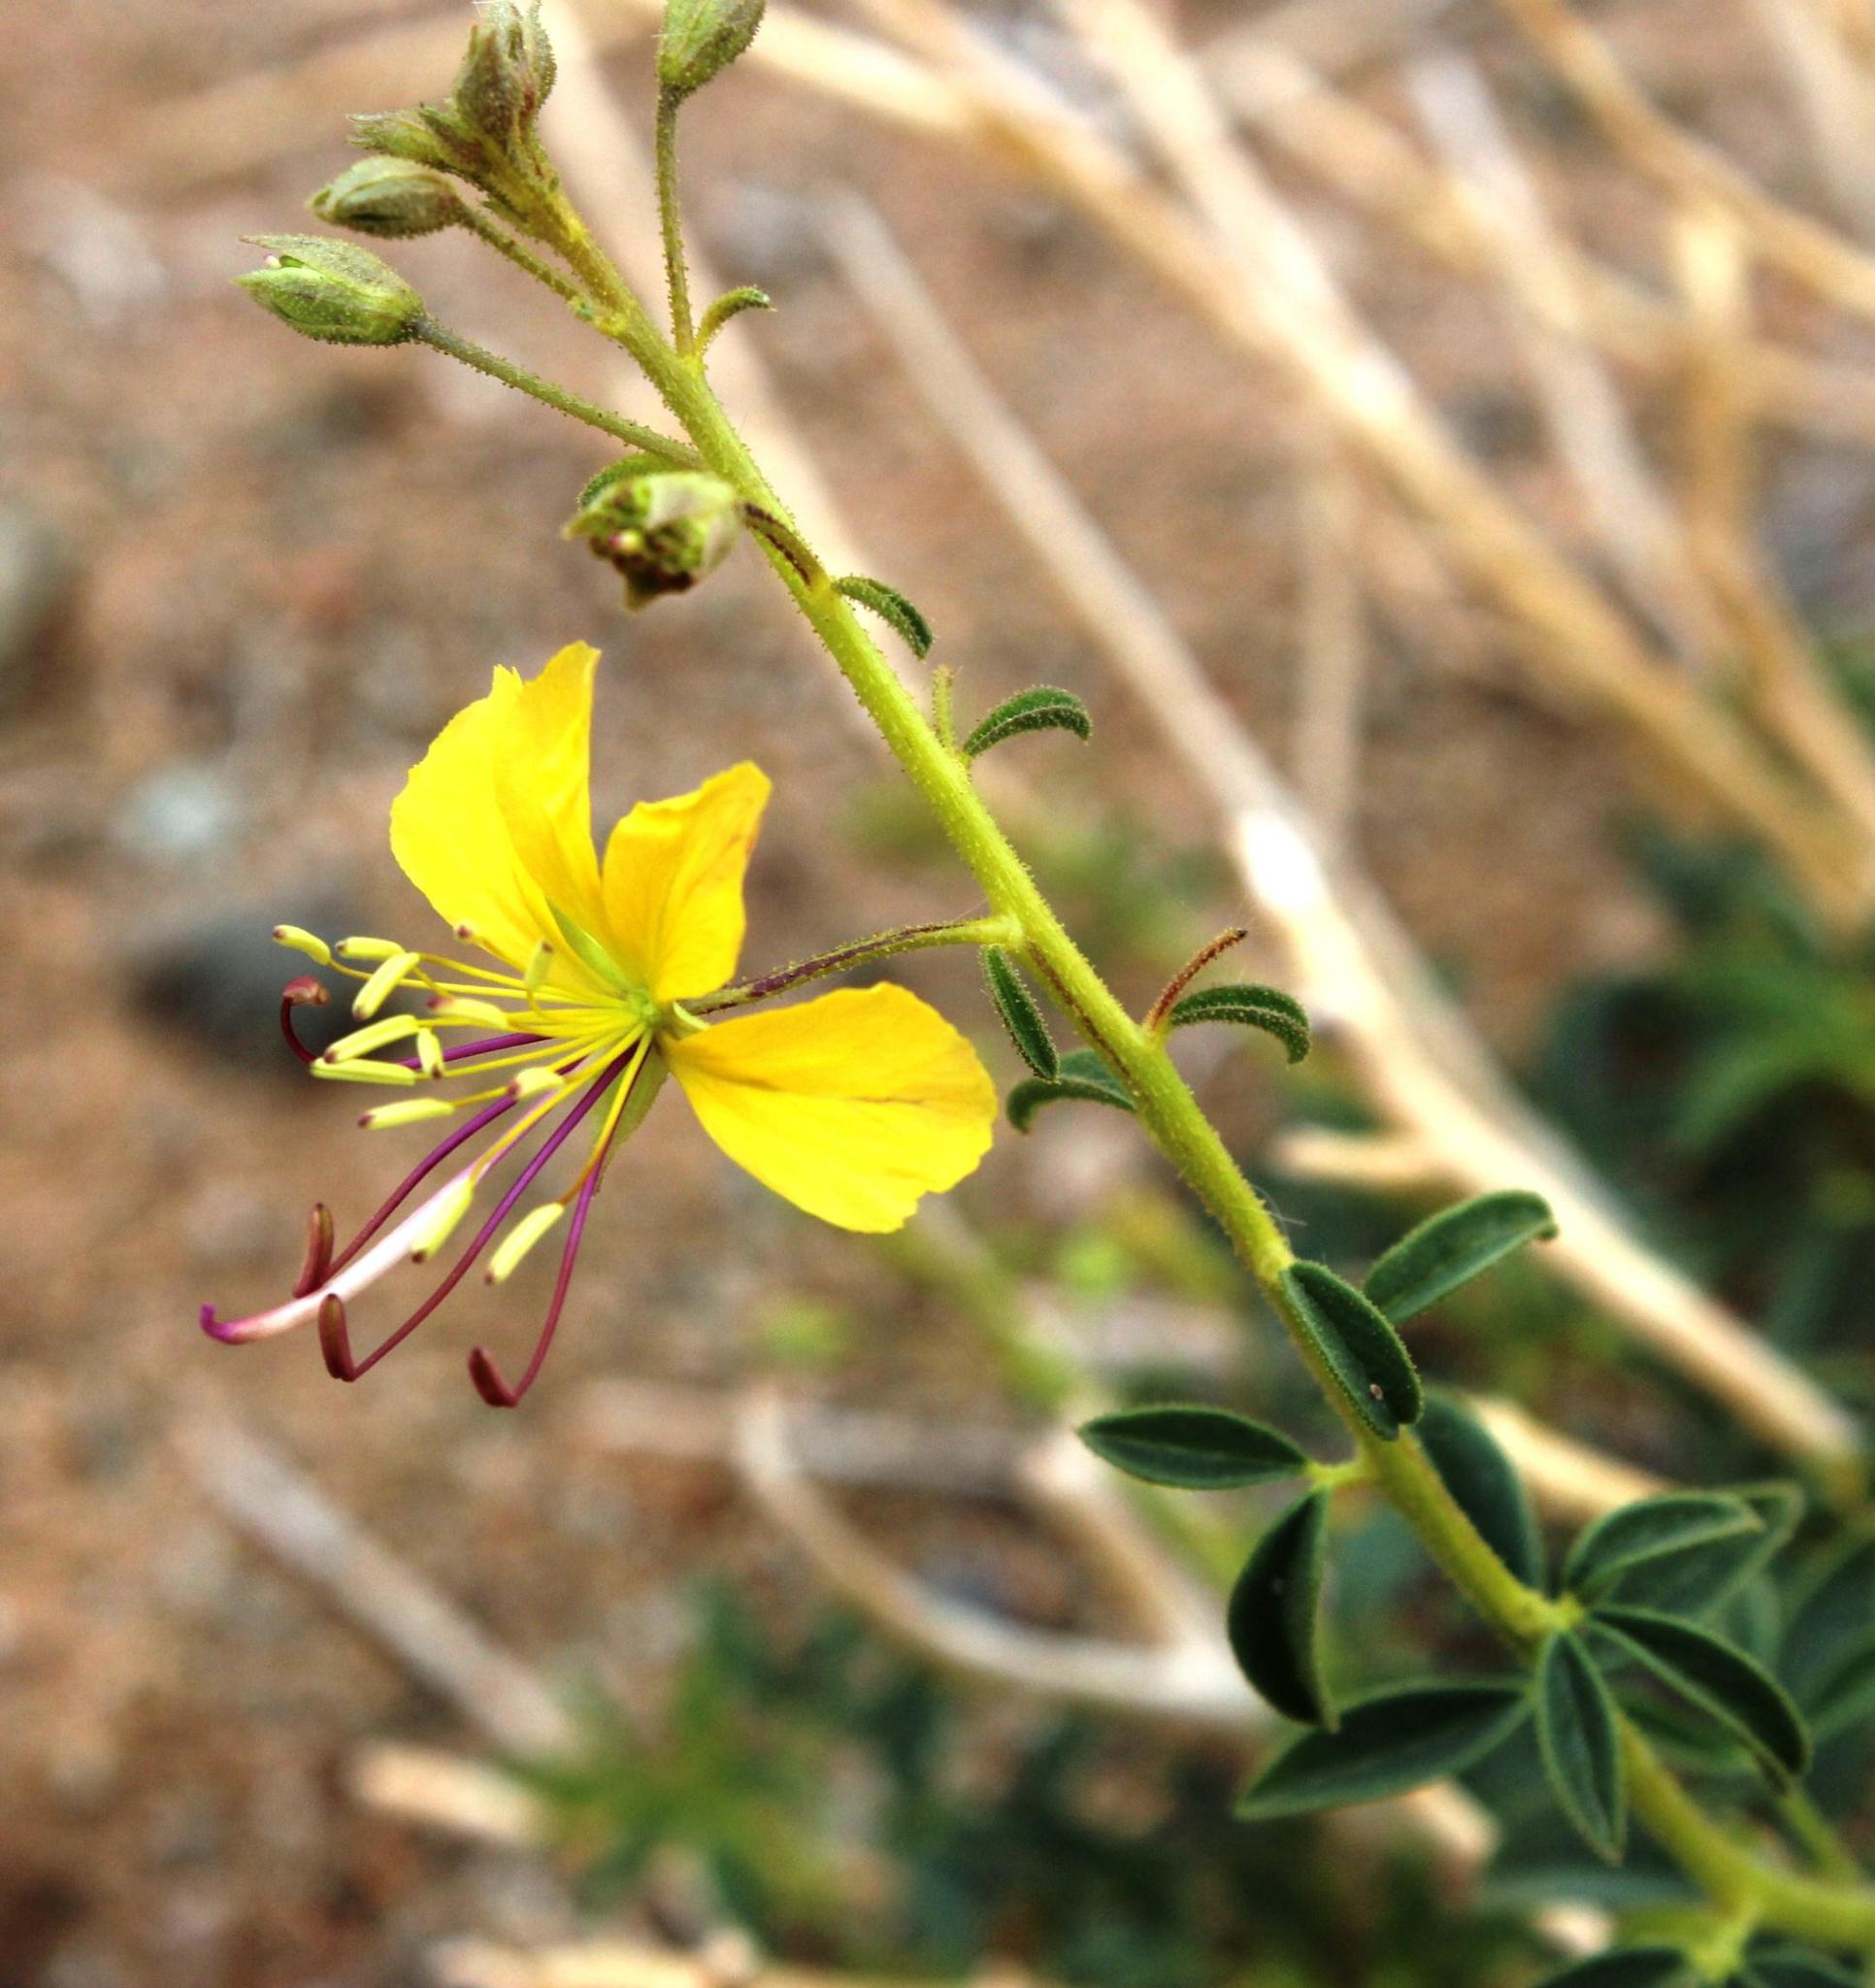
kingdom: Plantae
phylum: Tracheophyta
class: Magnoliopsida
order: Brassicales
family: Cleomaceae
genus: Kersia
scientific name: Kersia foliosa
